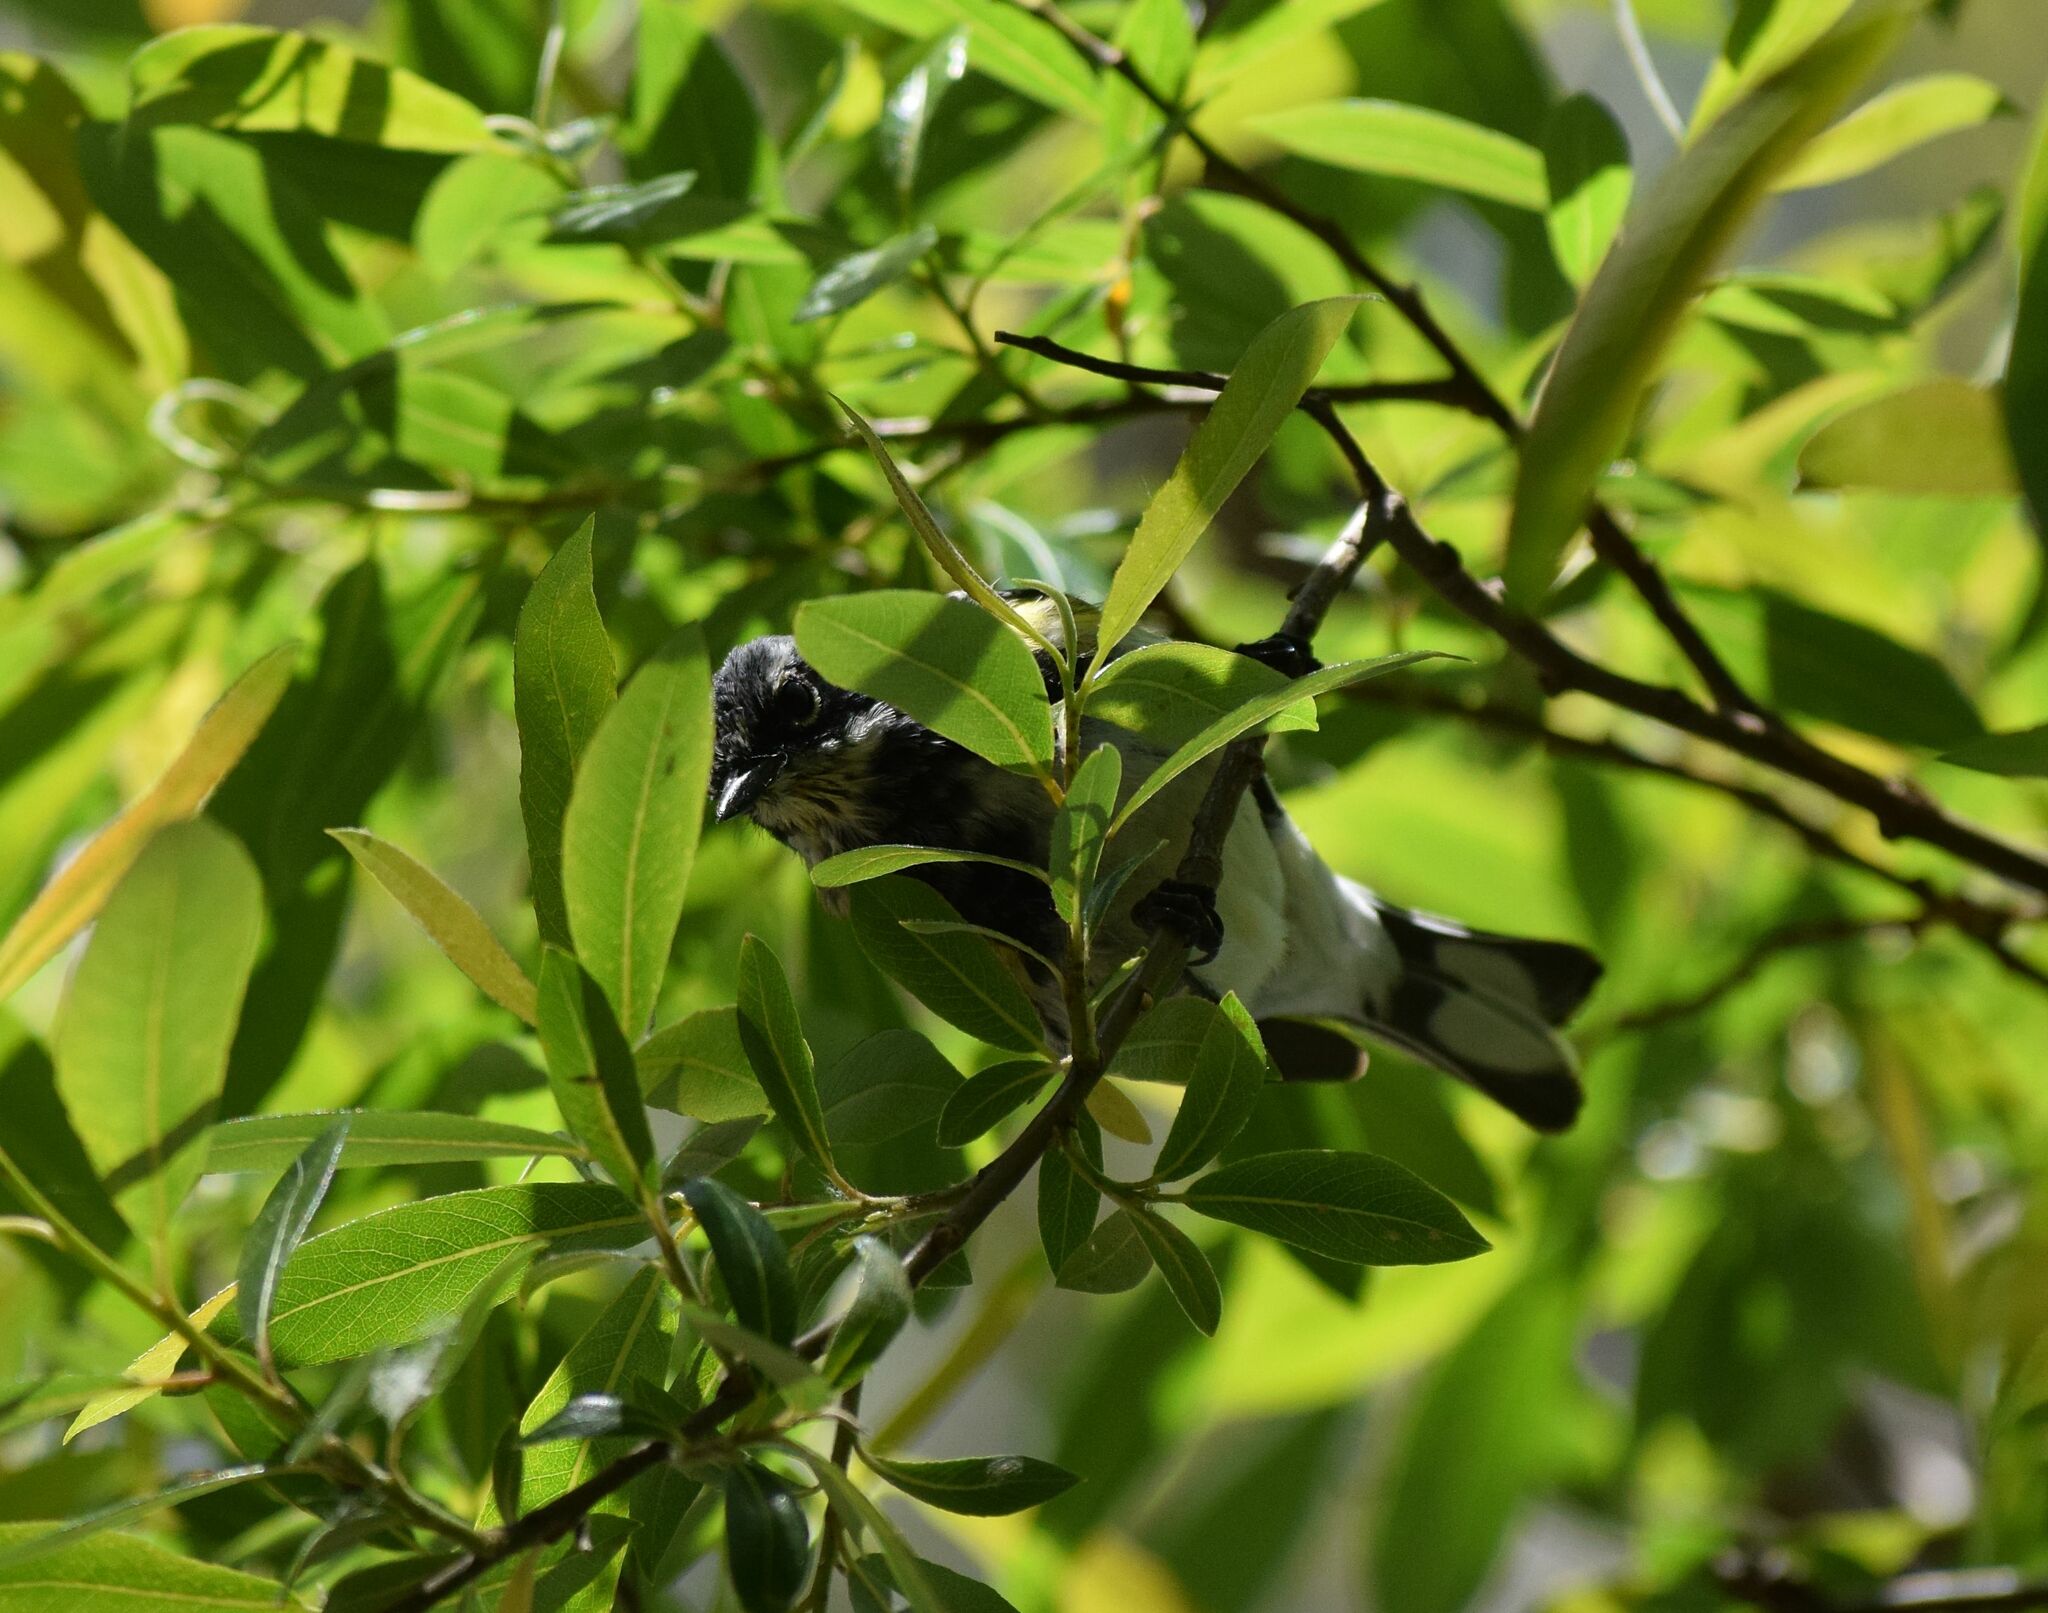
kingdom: Animalia
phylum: Chordata
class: Aves
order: Passeriformes
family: Parulidae
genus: Setophaga
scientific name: Setophaga coronata
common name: Myrtle warbler
